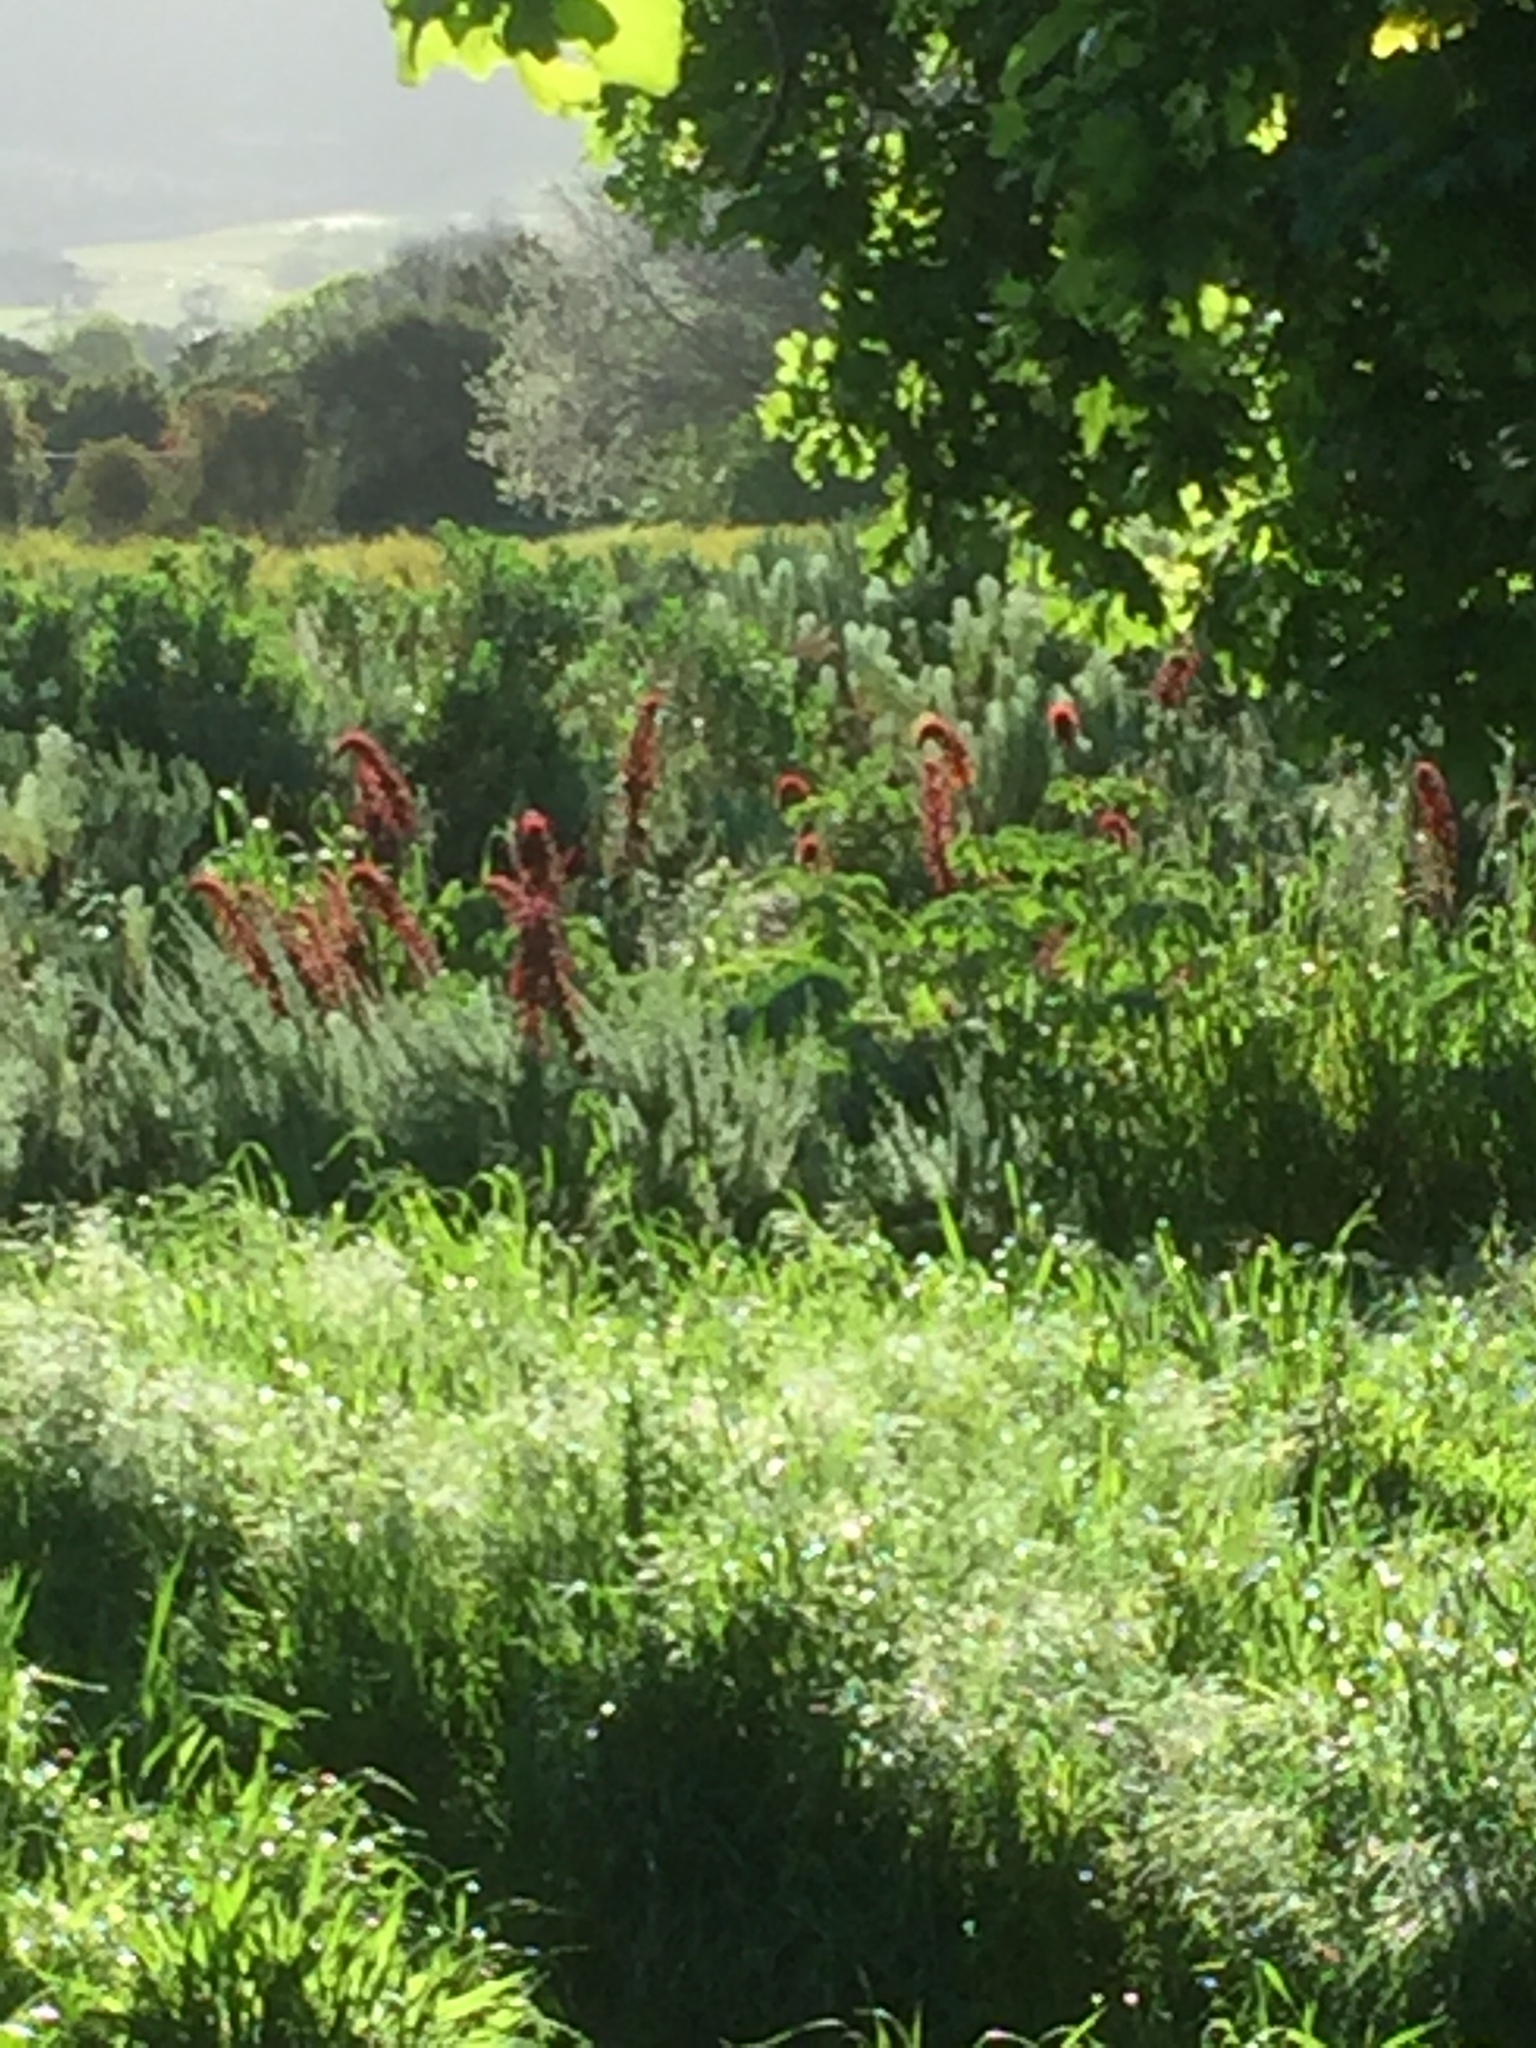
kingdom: Plantae
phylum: Tracheophyta
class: Magnoliopsida
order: Geraniales
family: Melianthaceae
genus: Melianthus
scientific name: Melianthus major
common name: Honey-flower
